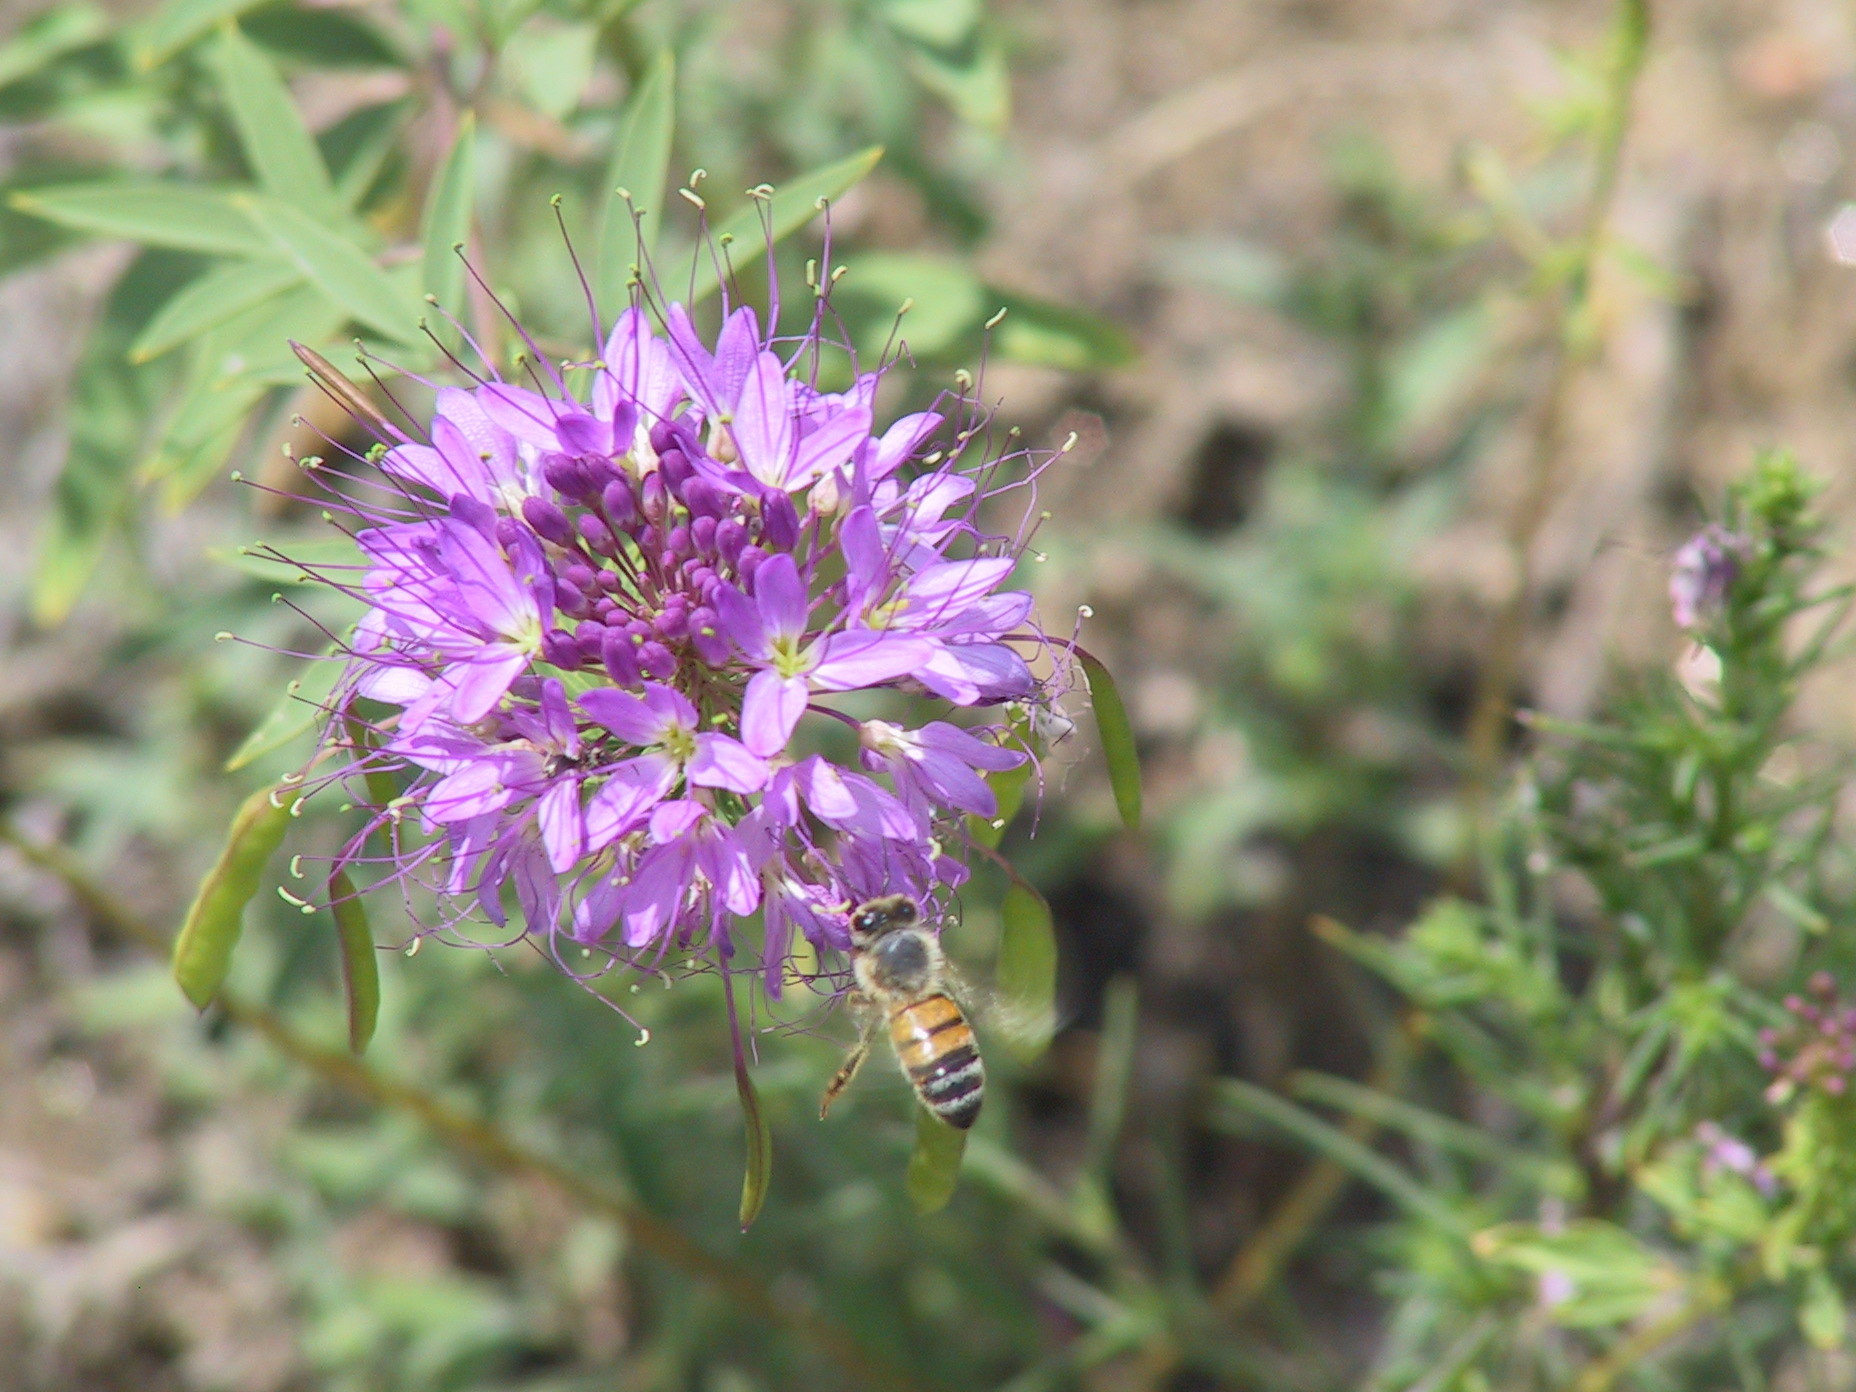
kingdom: Plantae
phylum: Tracheophyta
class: Magnoliopsida
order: Brassicales
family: Cleomaceae
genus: Cleomella
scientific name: Cleomella serrulata
